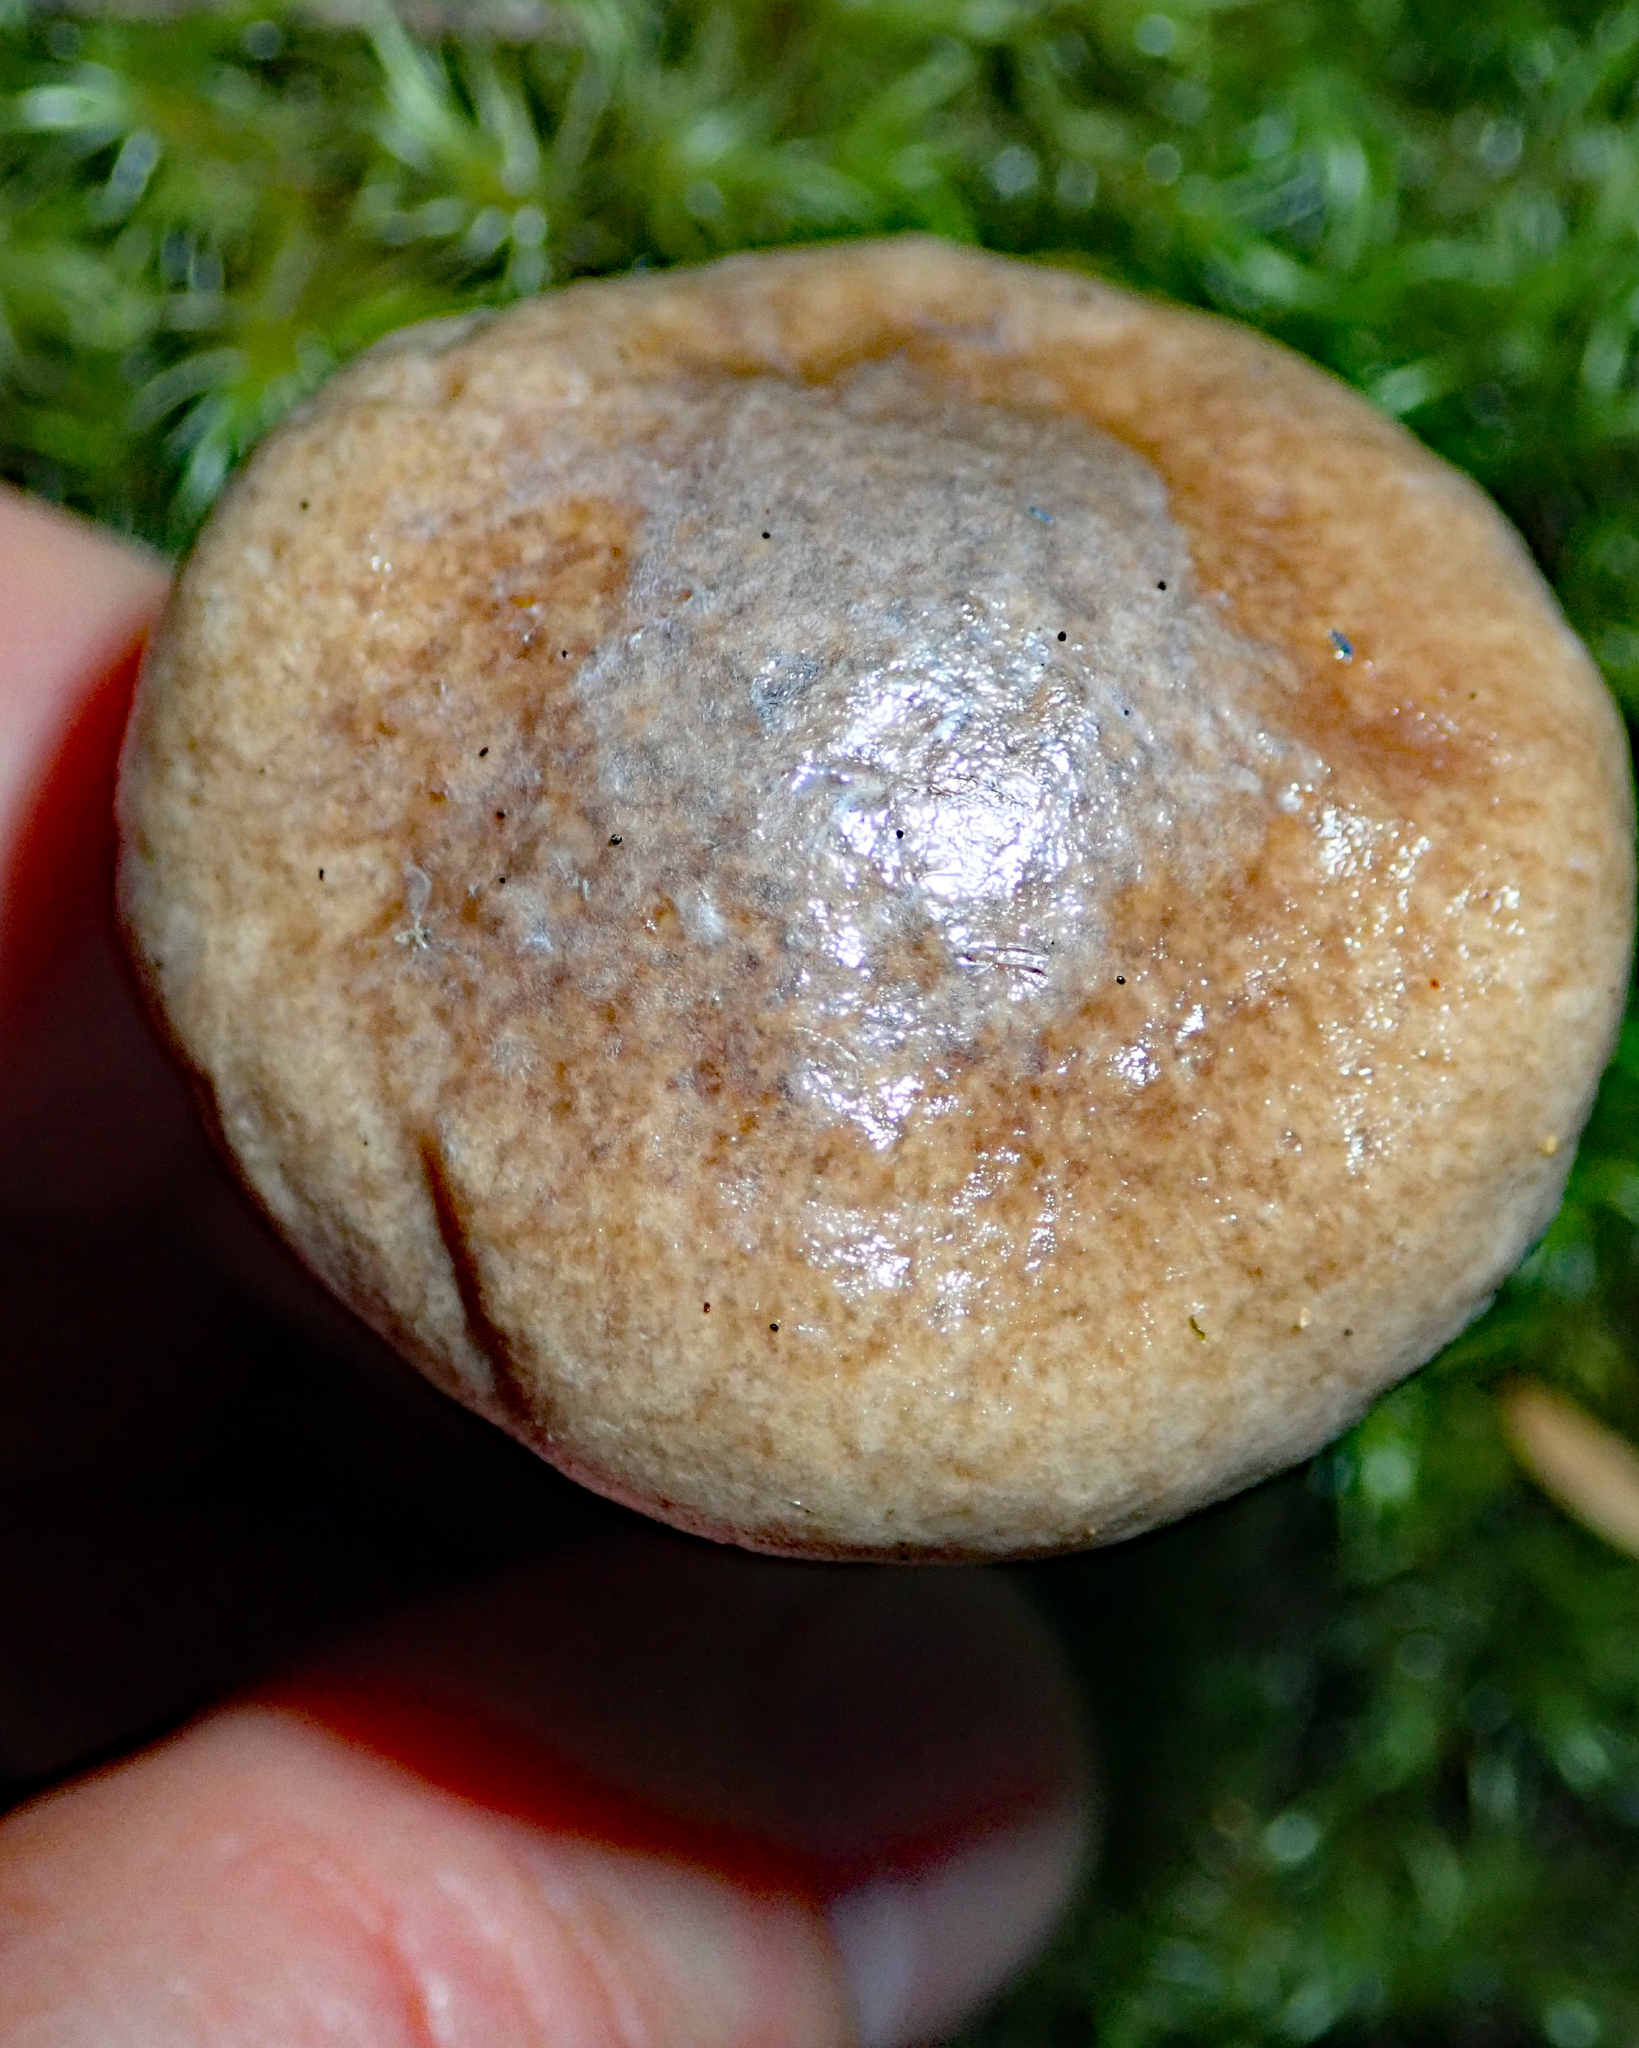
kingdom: Fungi
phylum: Basidiomycota
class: Agaricomycetes
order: Boletales
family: Boletaceae
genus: Fistulinella
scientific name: Fistulinella viscida
